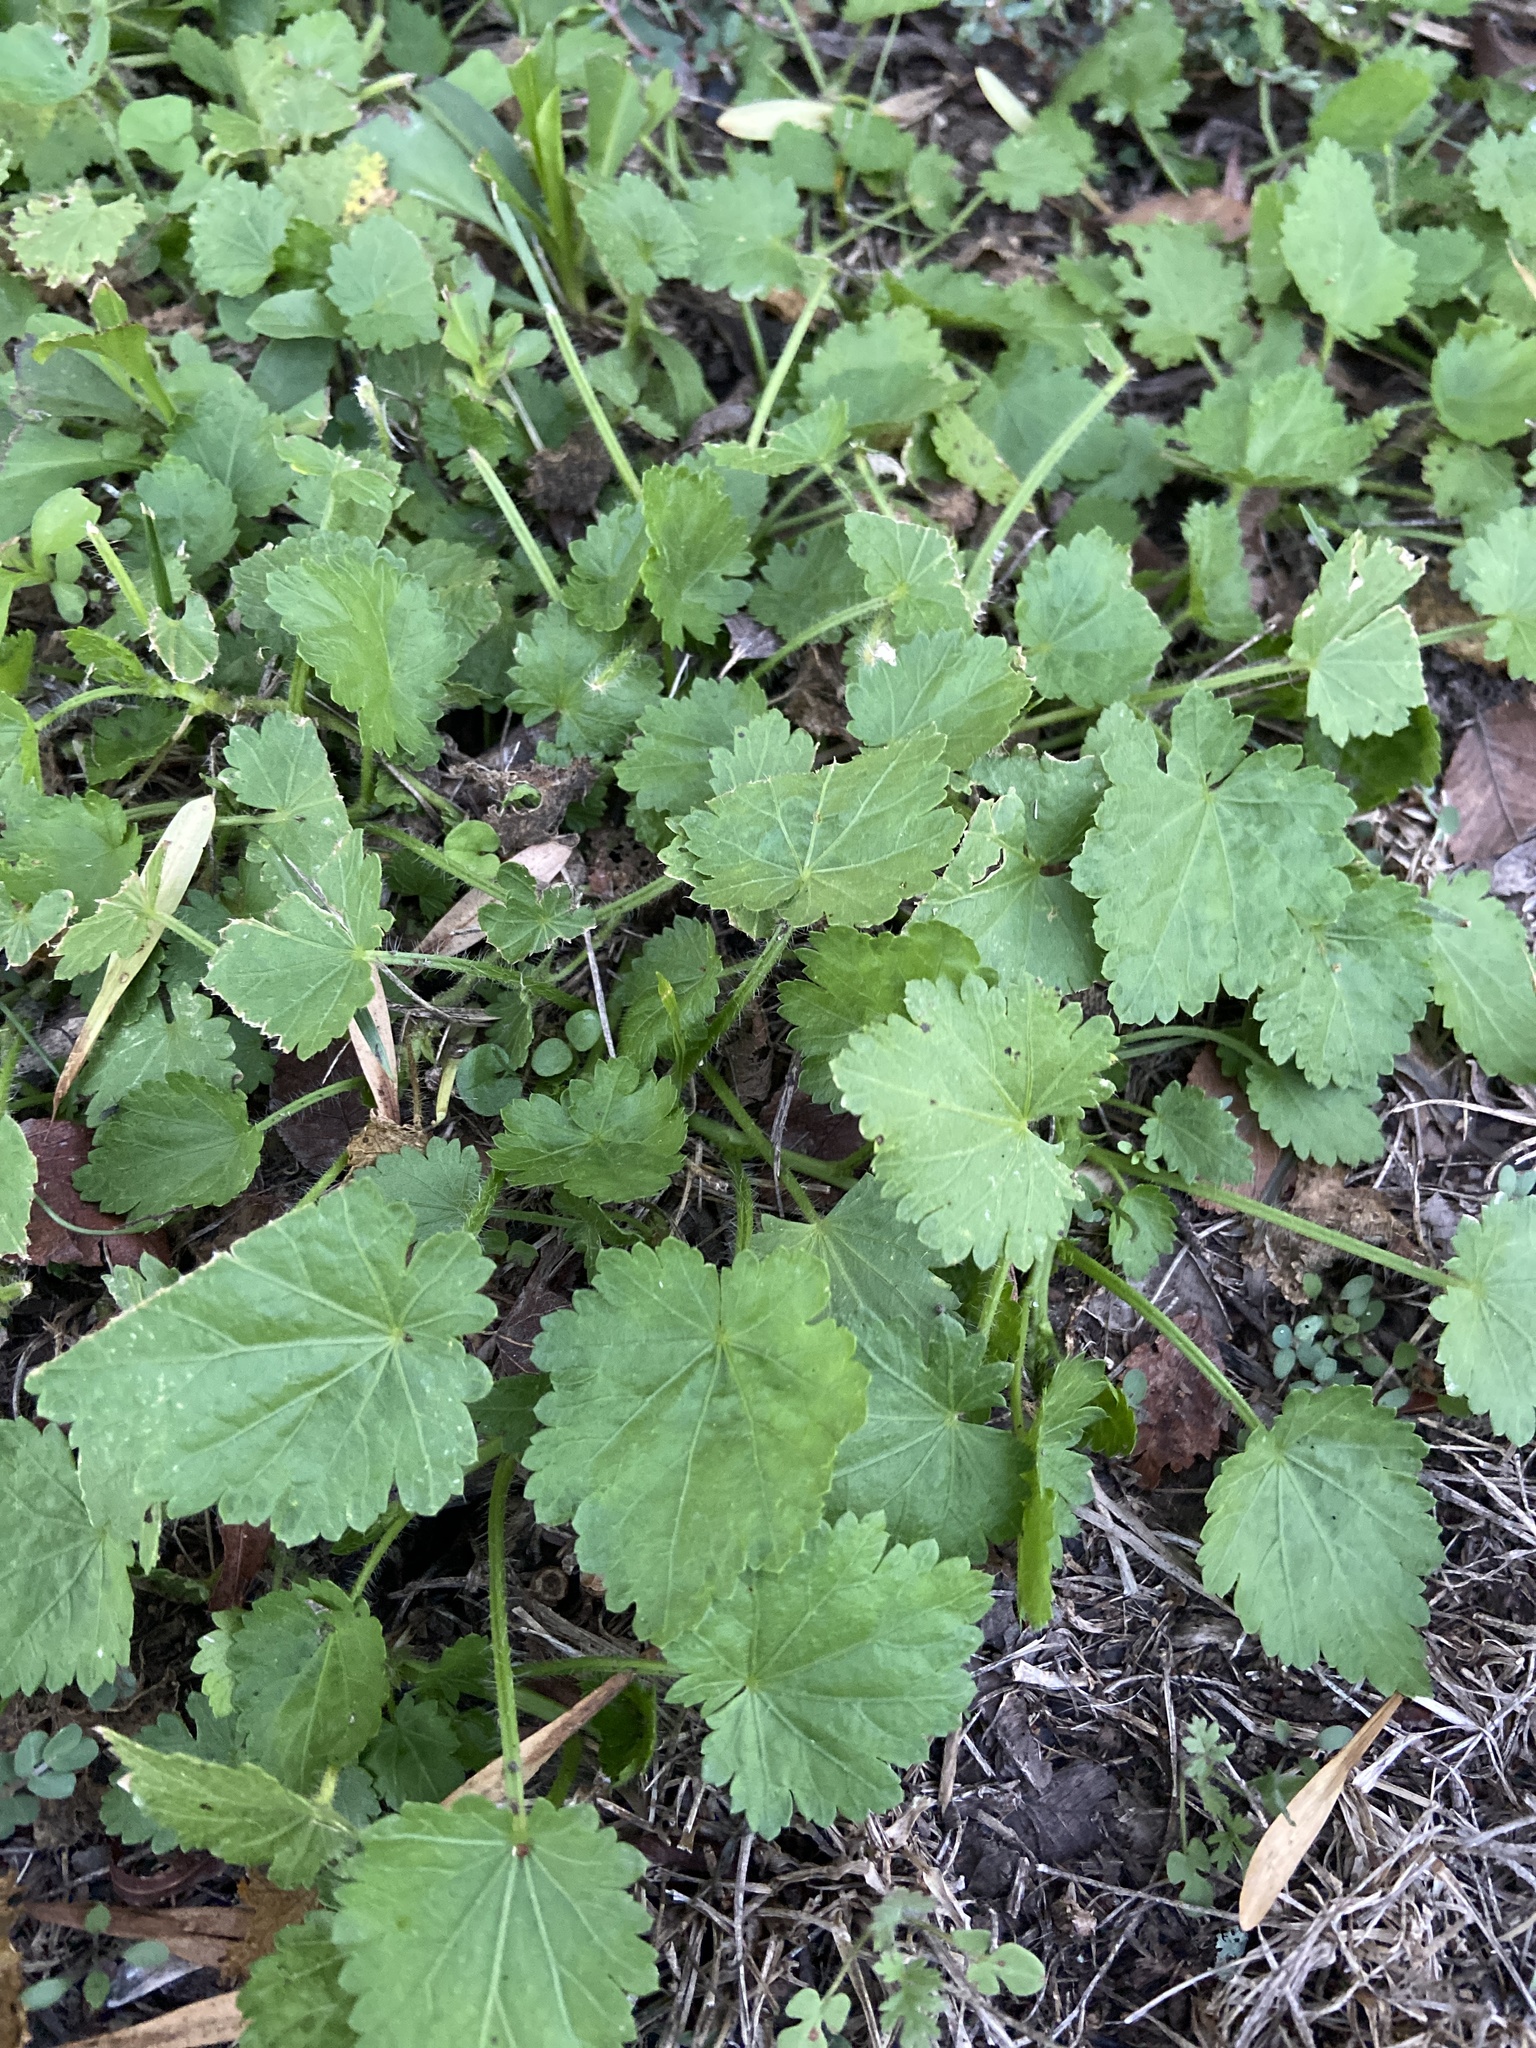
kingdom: Plantae
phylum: Tracheophyta
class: Magnoliopsida
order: Malvales
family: Malvaceae
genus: Modiola
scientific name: Modiola caroliniana
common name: Carolina bristlemallow
